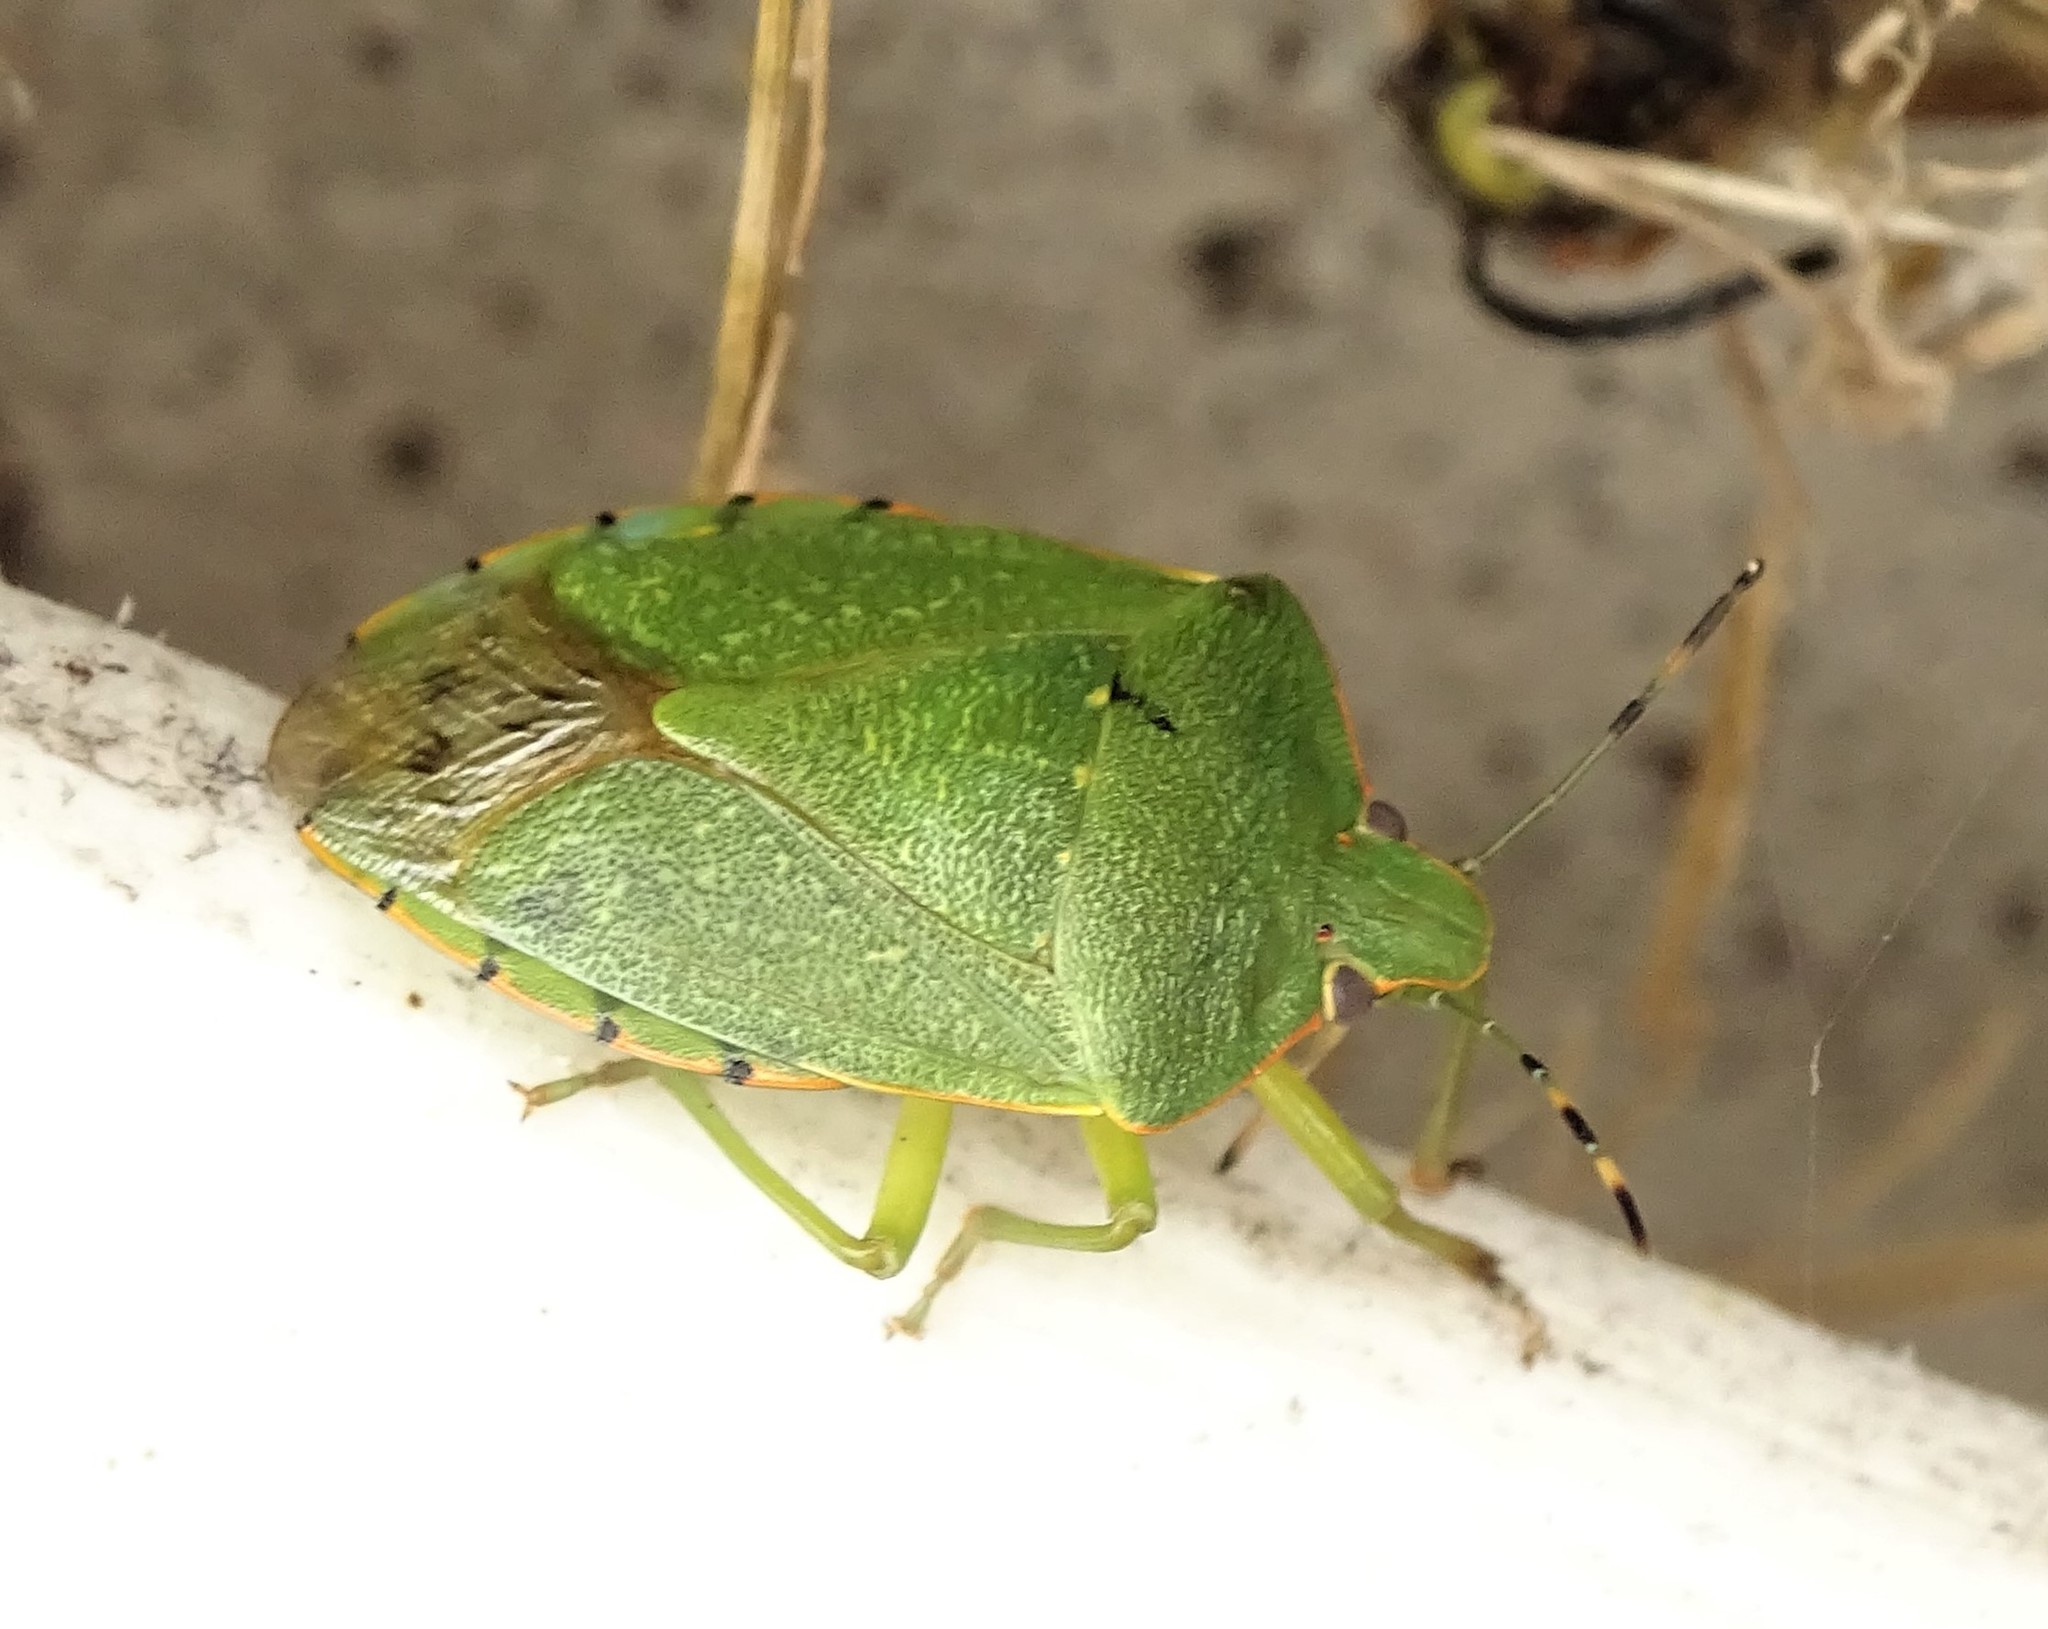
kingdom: Animalia
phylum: Arthropoda
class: Insecta
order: Hemiptera
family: Pentatomidae
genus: Chinavia
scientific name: Chinavia hilaris
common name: Green stink bug
